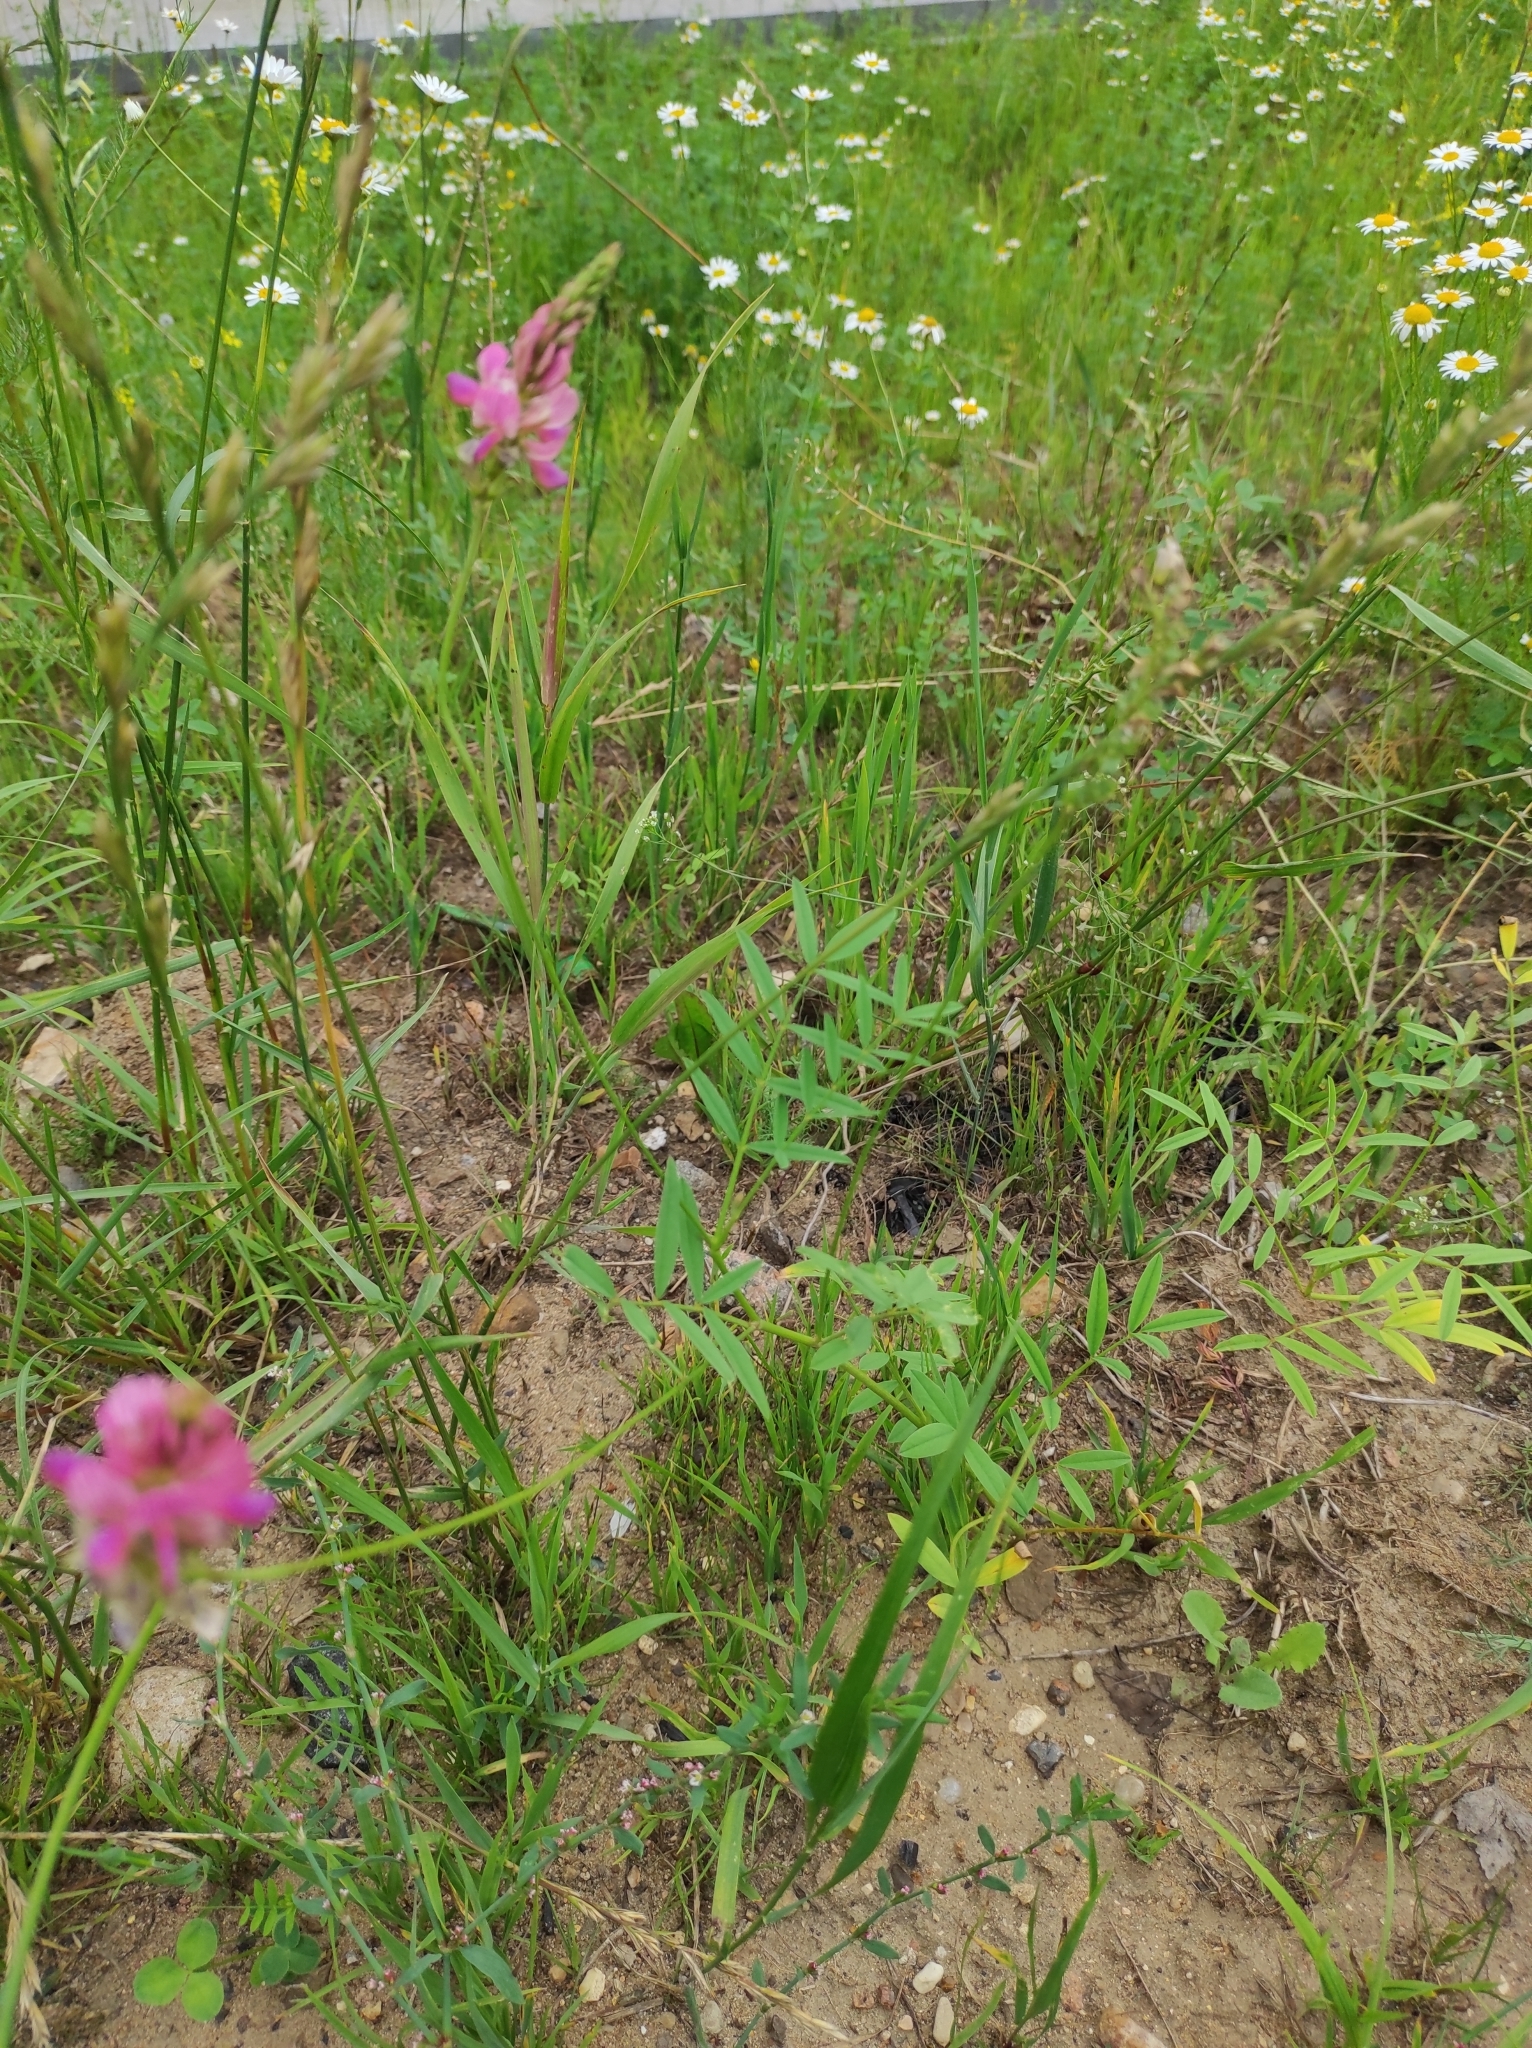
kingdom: Plantae
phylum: Tracheophyta
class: Magnoliopsida
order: Fabales
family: Fabaceae
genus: Onobrychis
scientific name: Onobrychis viciifolia
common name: Sainfoin
